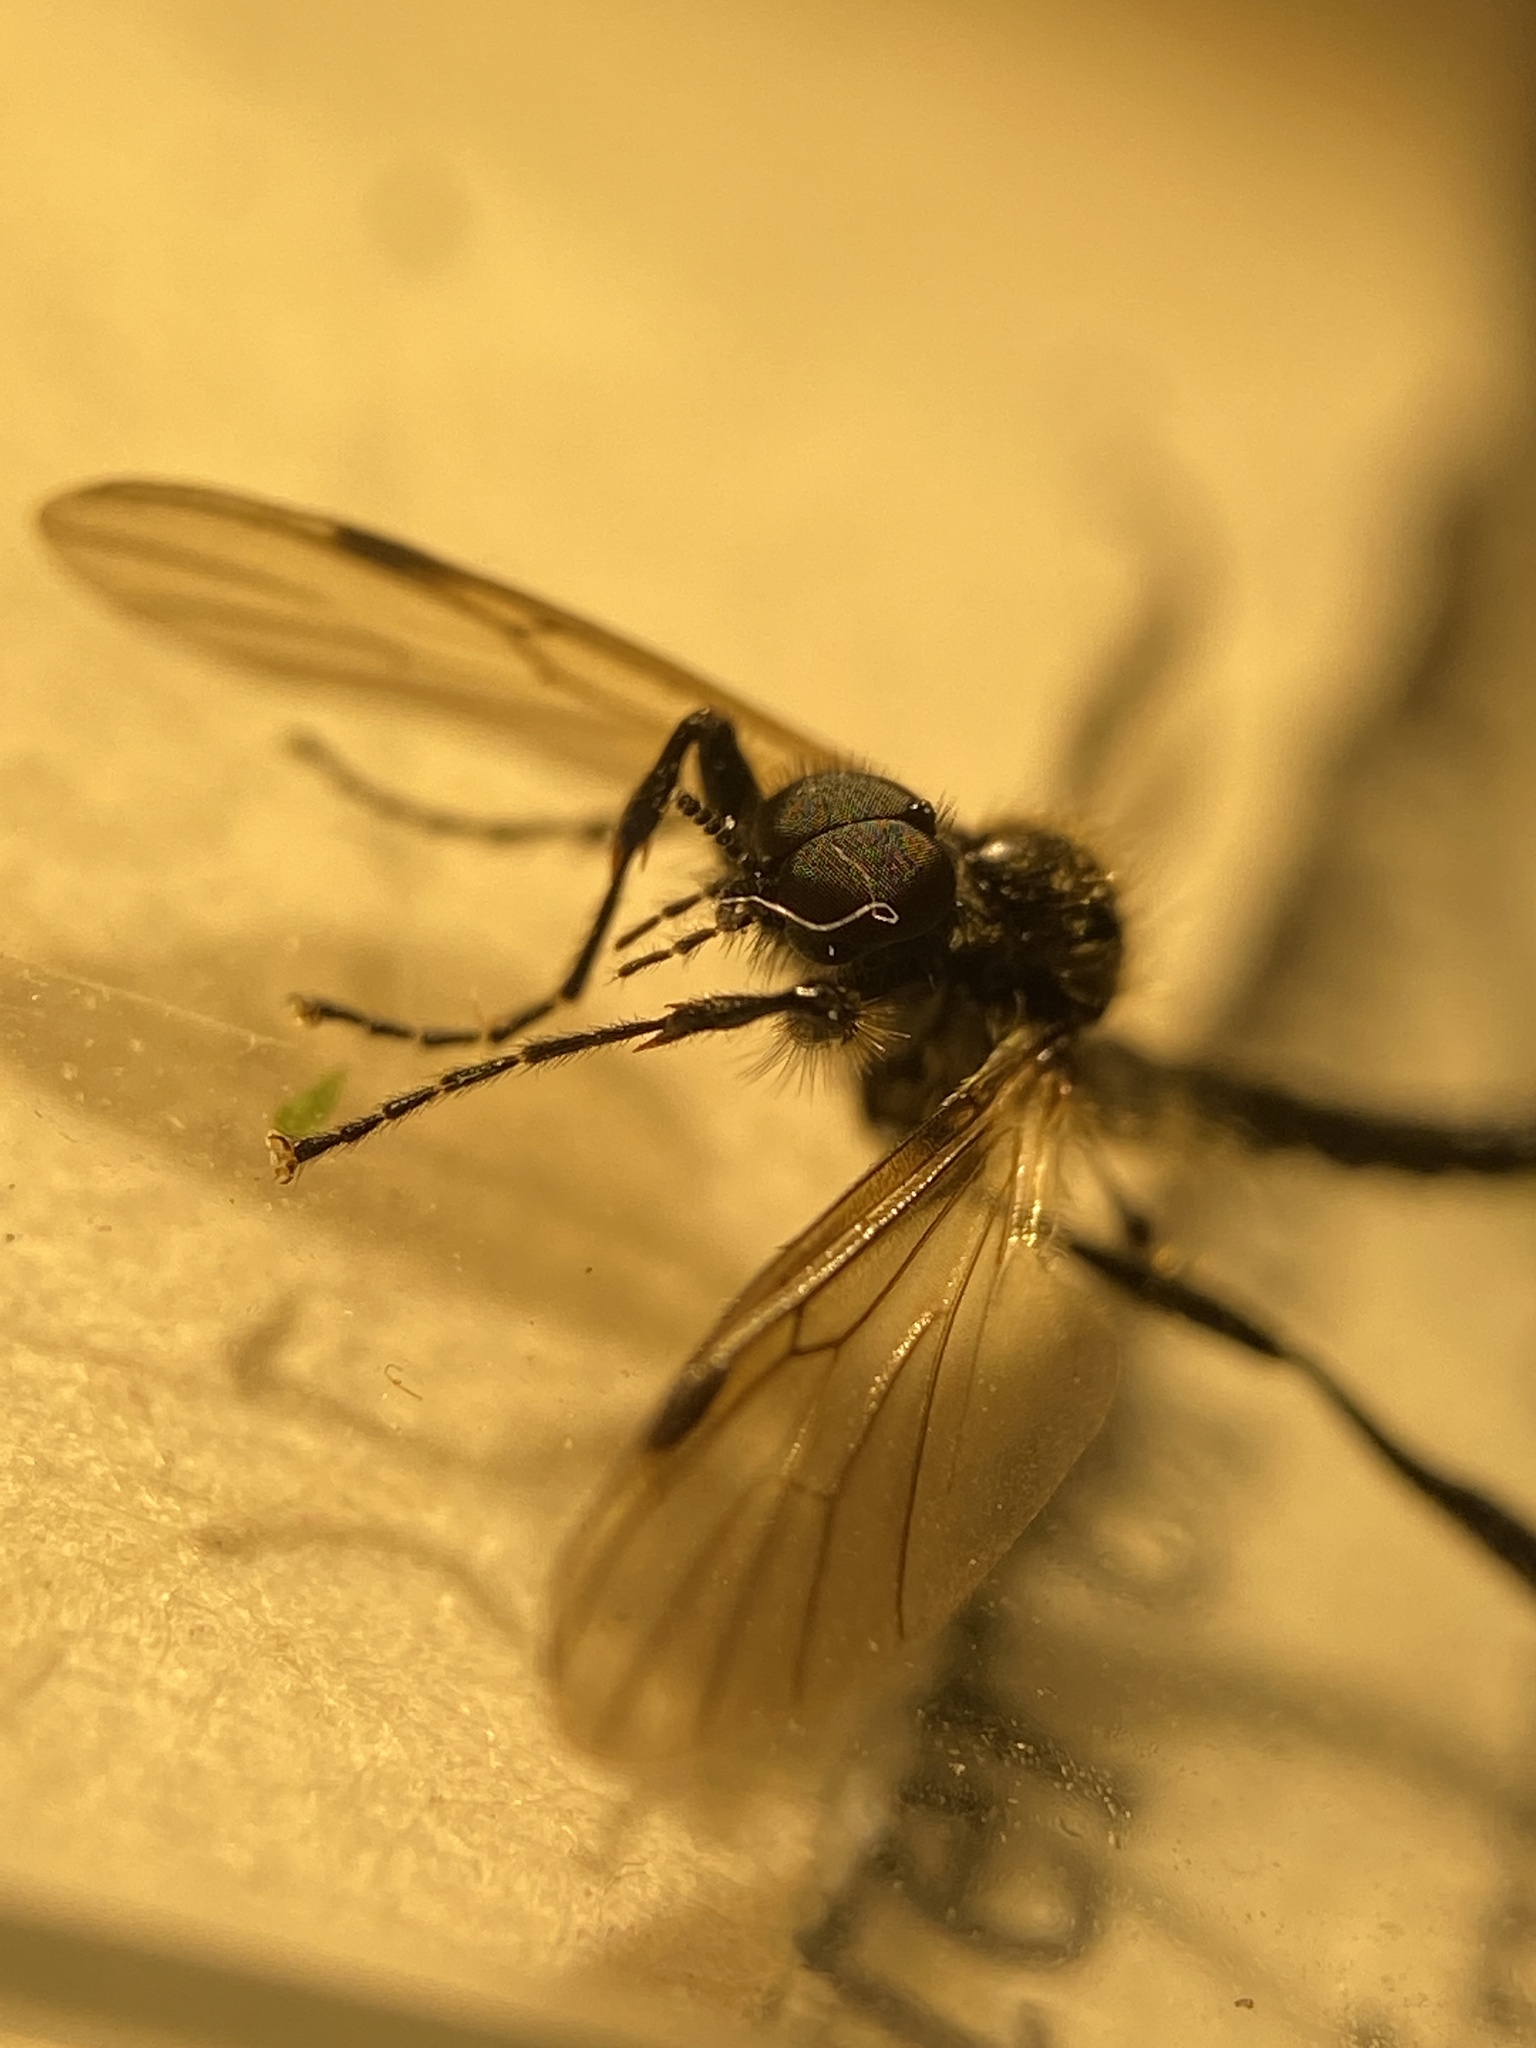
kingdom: Animalia
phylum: Arthropoda
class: Insecta
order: Diptera
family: Bibionidae
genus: Bibio
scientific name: Bibio longipes
